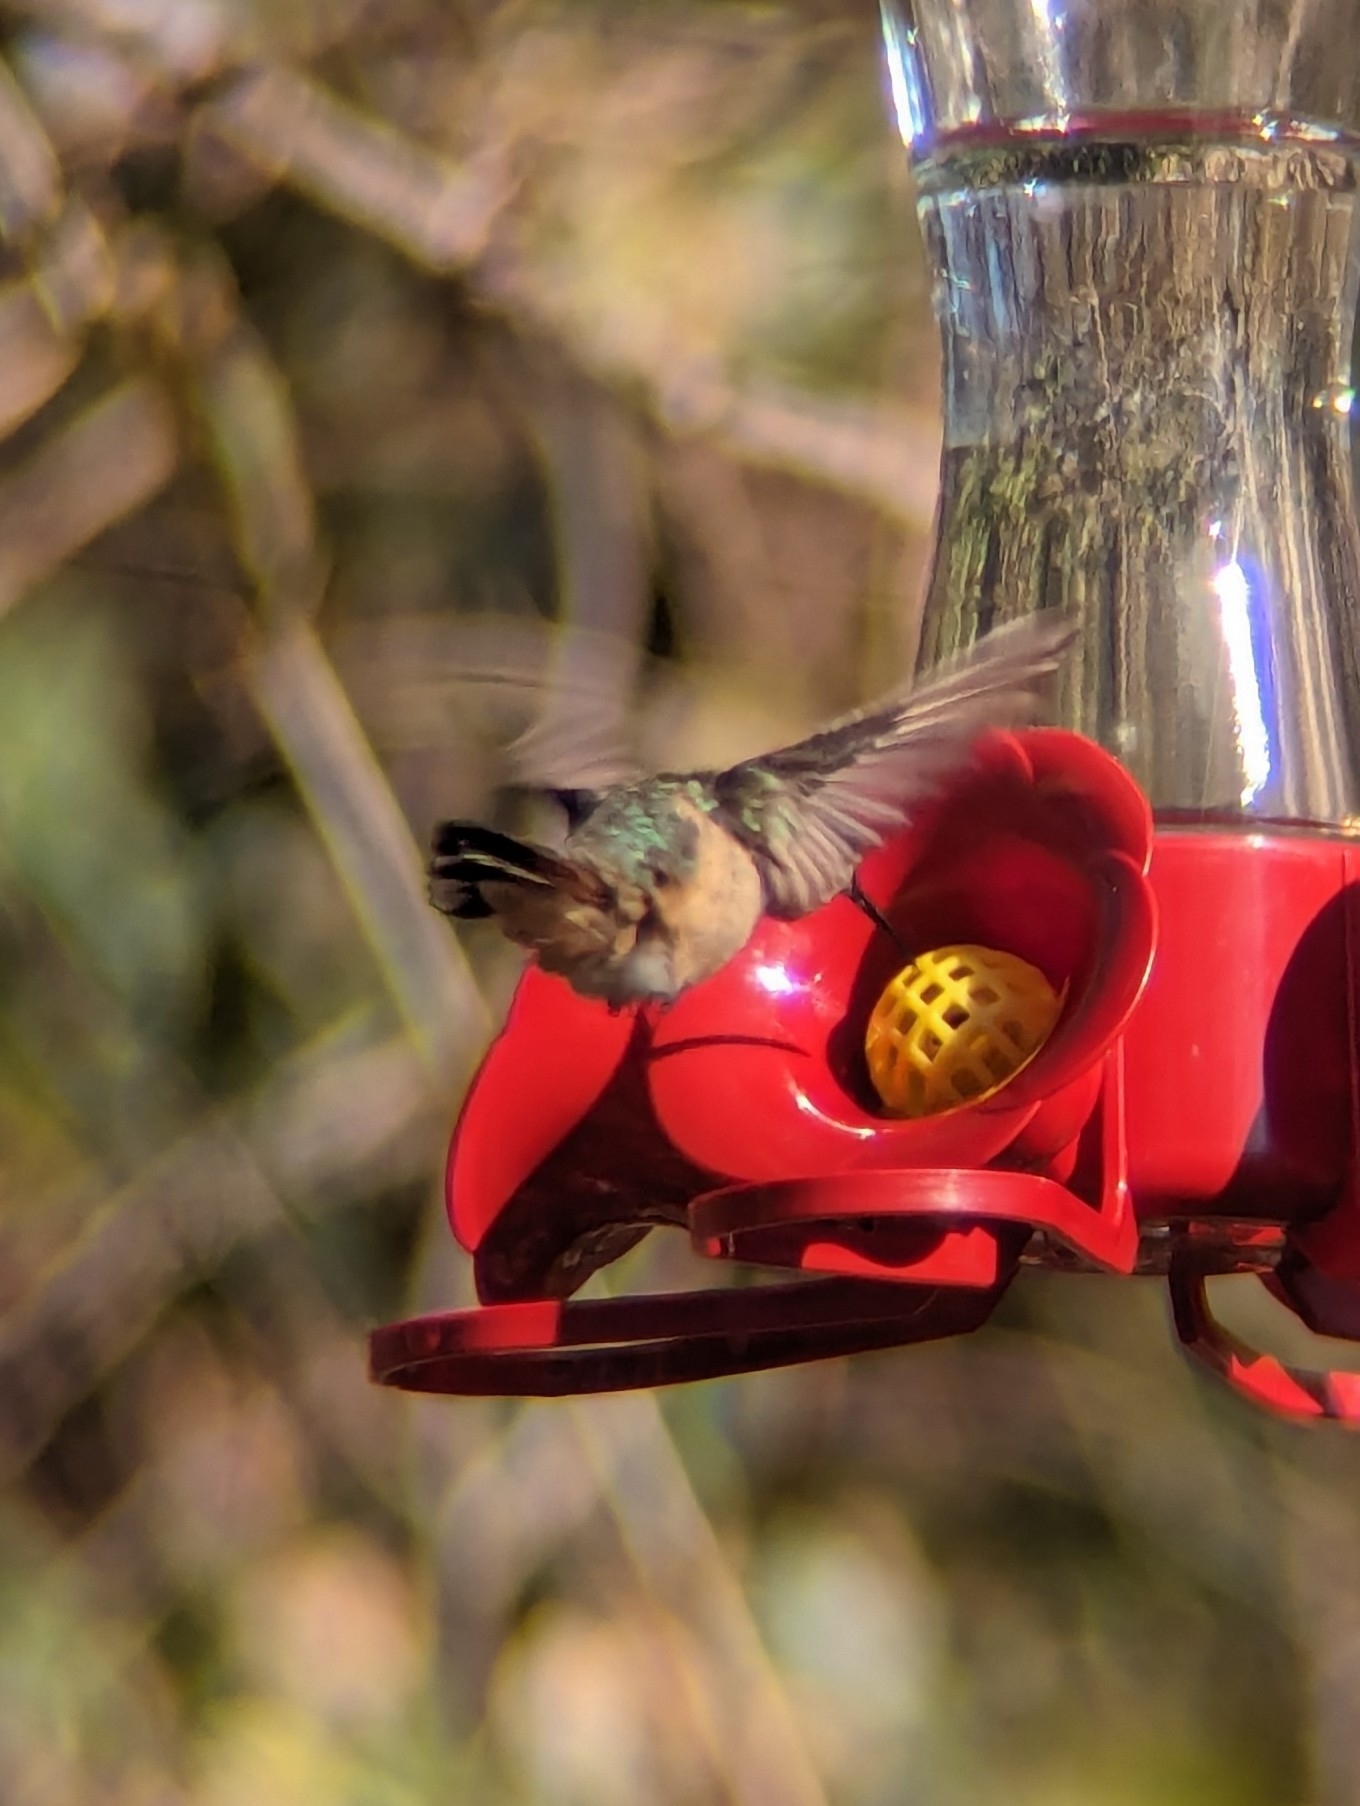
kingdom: Animalia
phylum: Chordata
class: Aves
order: Apodiformes
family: Trochilidae
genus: Selasphorus
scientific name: Selasphorus rufus
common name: Rufous hummingbird
